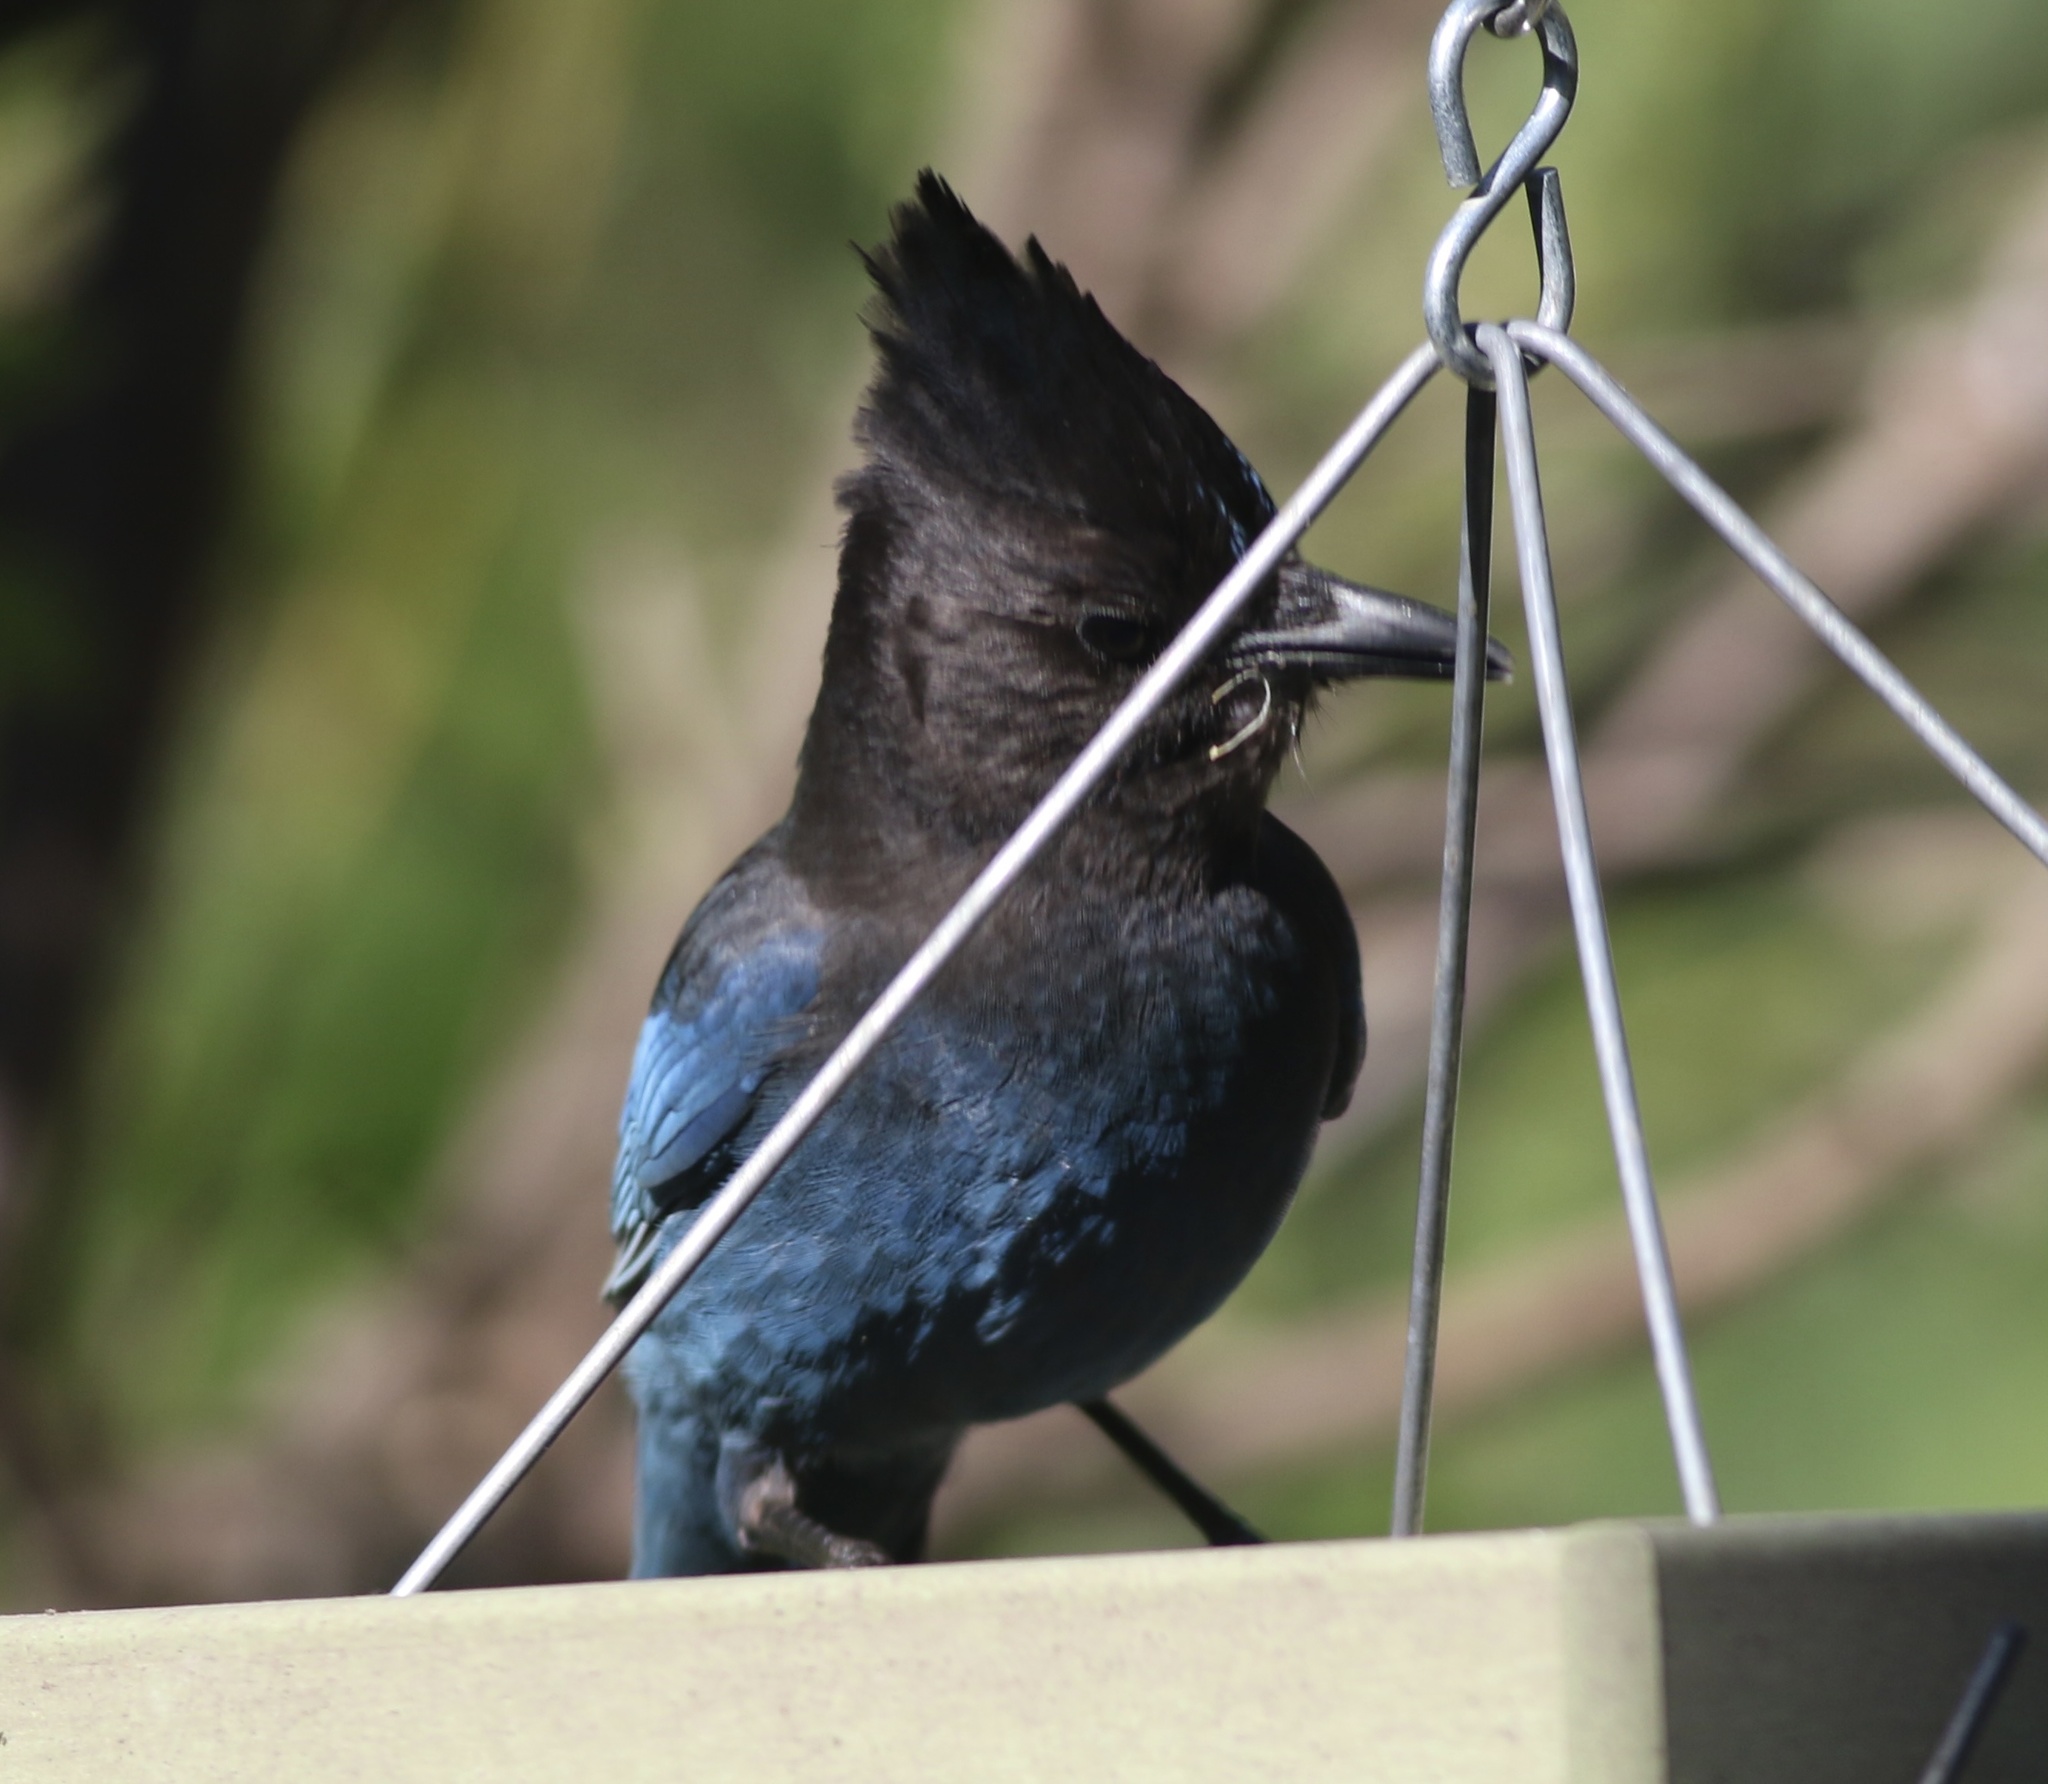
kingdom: Animalia
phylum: Chordata
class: Aves
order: Passeriformes
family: Corvidae
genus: Cyanocitta
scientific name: Cyanocitta stelleri
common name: Steller's jay
